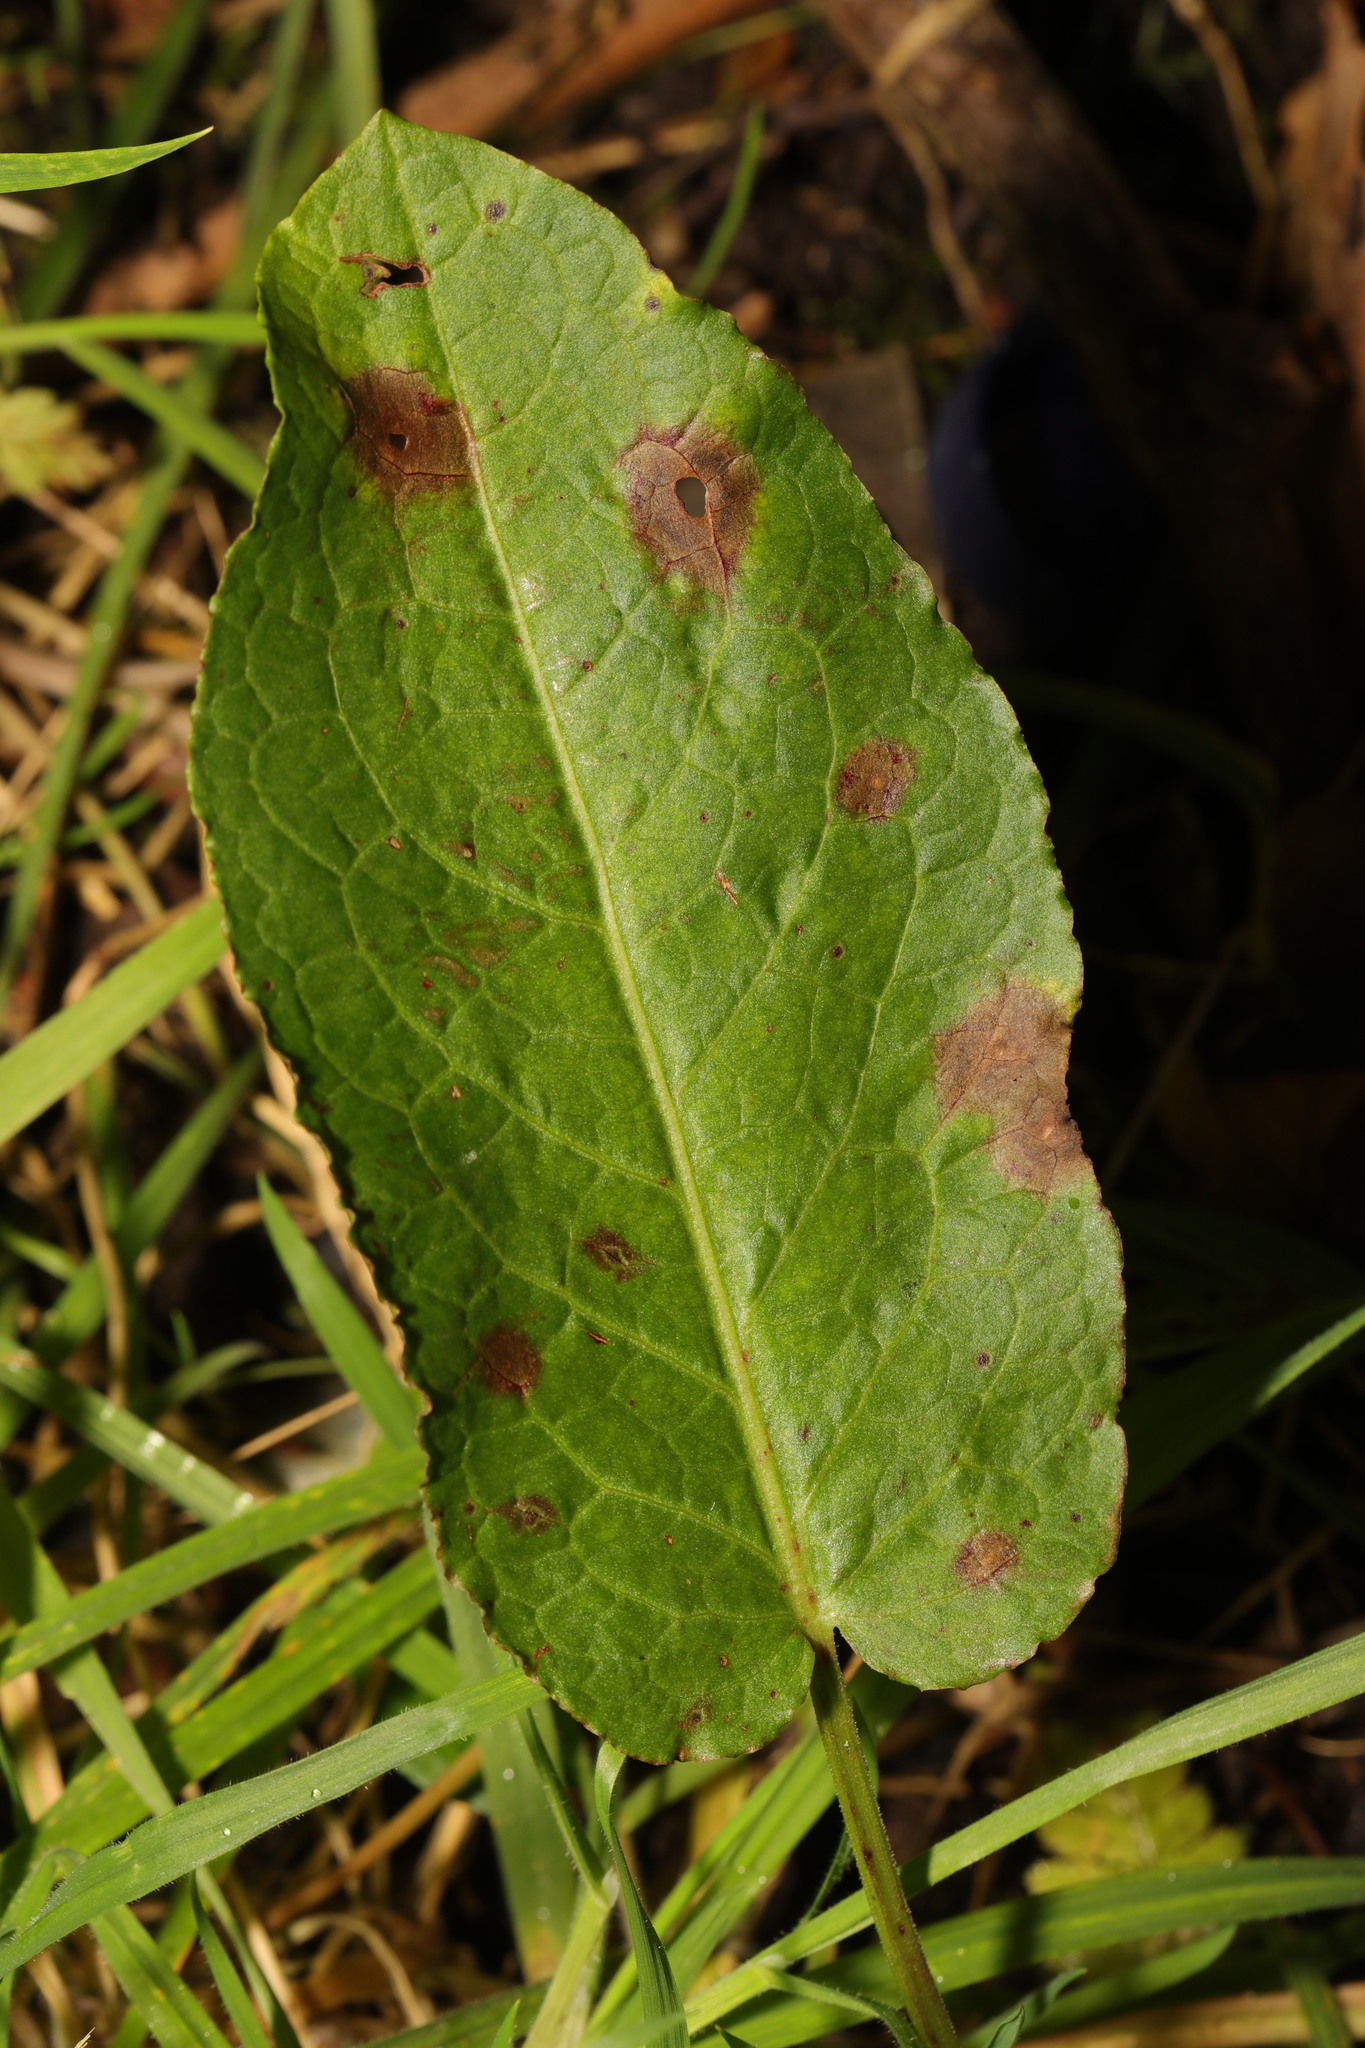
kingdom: Plantae
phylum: Tracheophyta
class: Magnoliopsida
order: Caryophyllales
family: Polygonaceae
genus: Rumex
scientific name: Rumex obtusifolius
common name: Bitter dock
